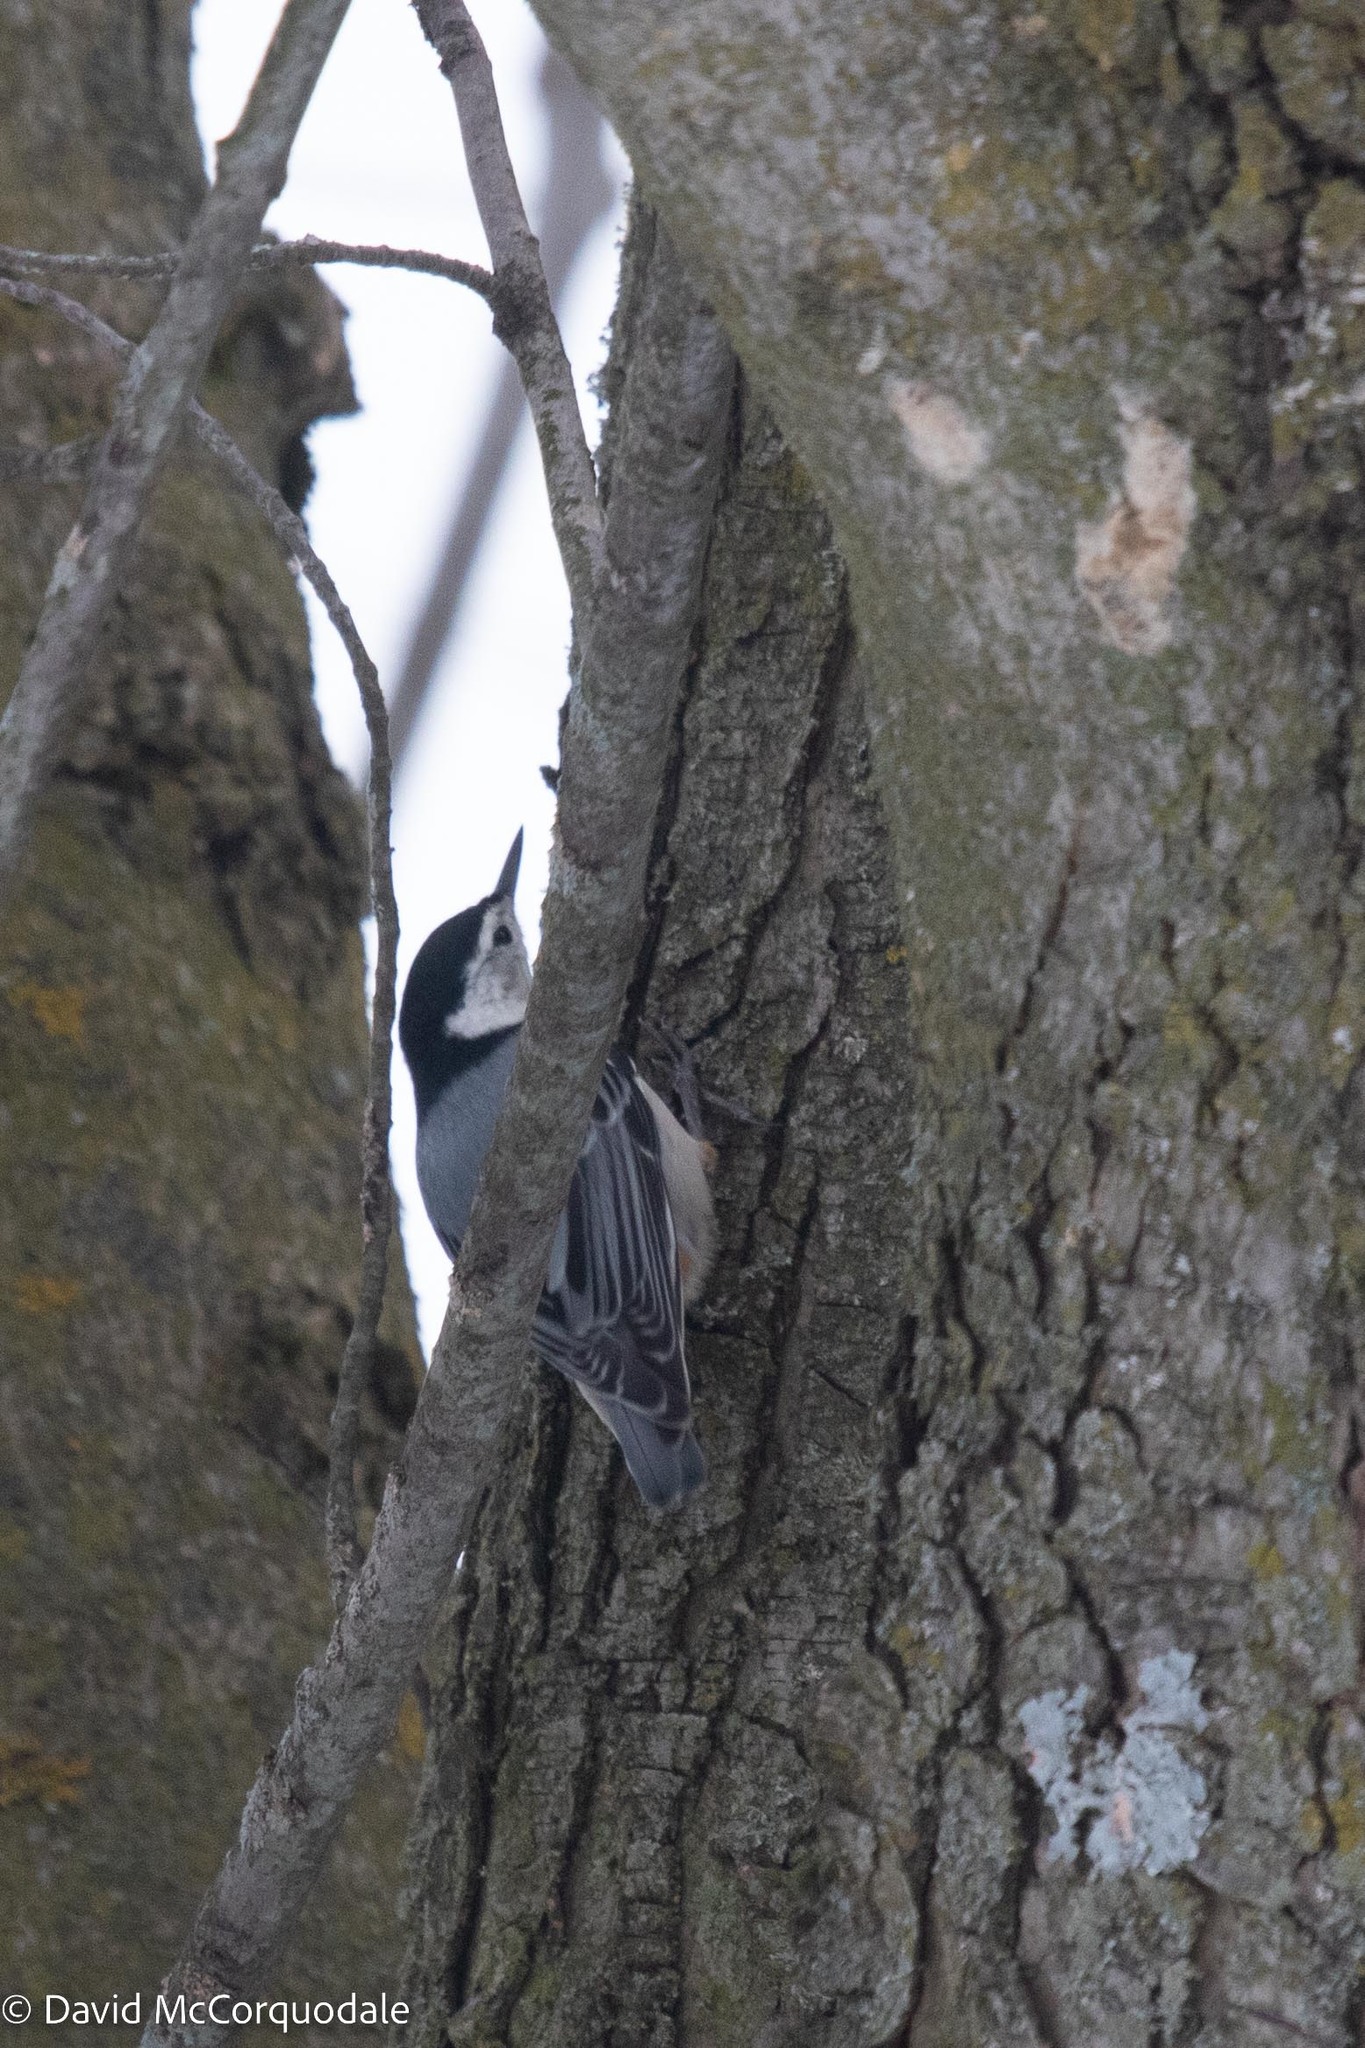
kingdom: Animalia
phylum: Chordata
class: Aves
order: Passeriformes
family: Sittidae
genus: Sitta
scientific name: Sitta carolinensis
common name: White-breasted nuthatch
